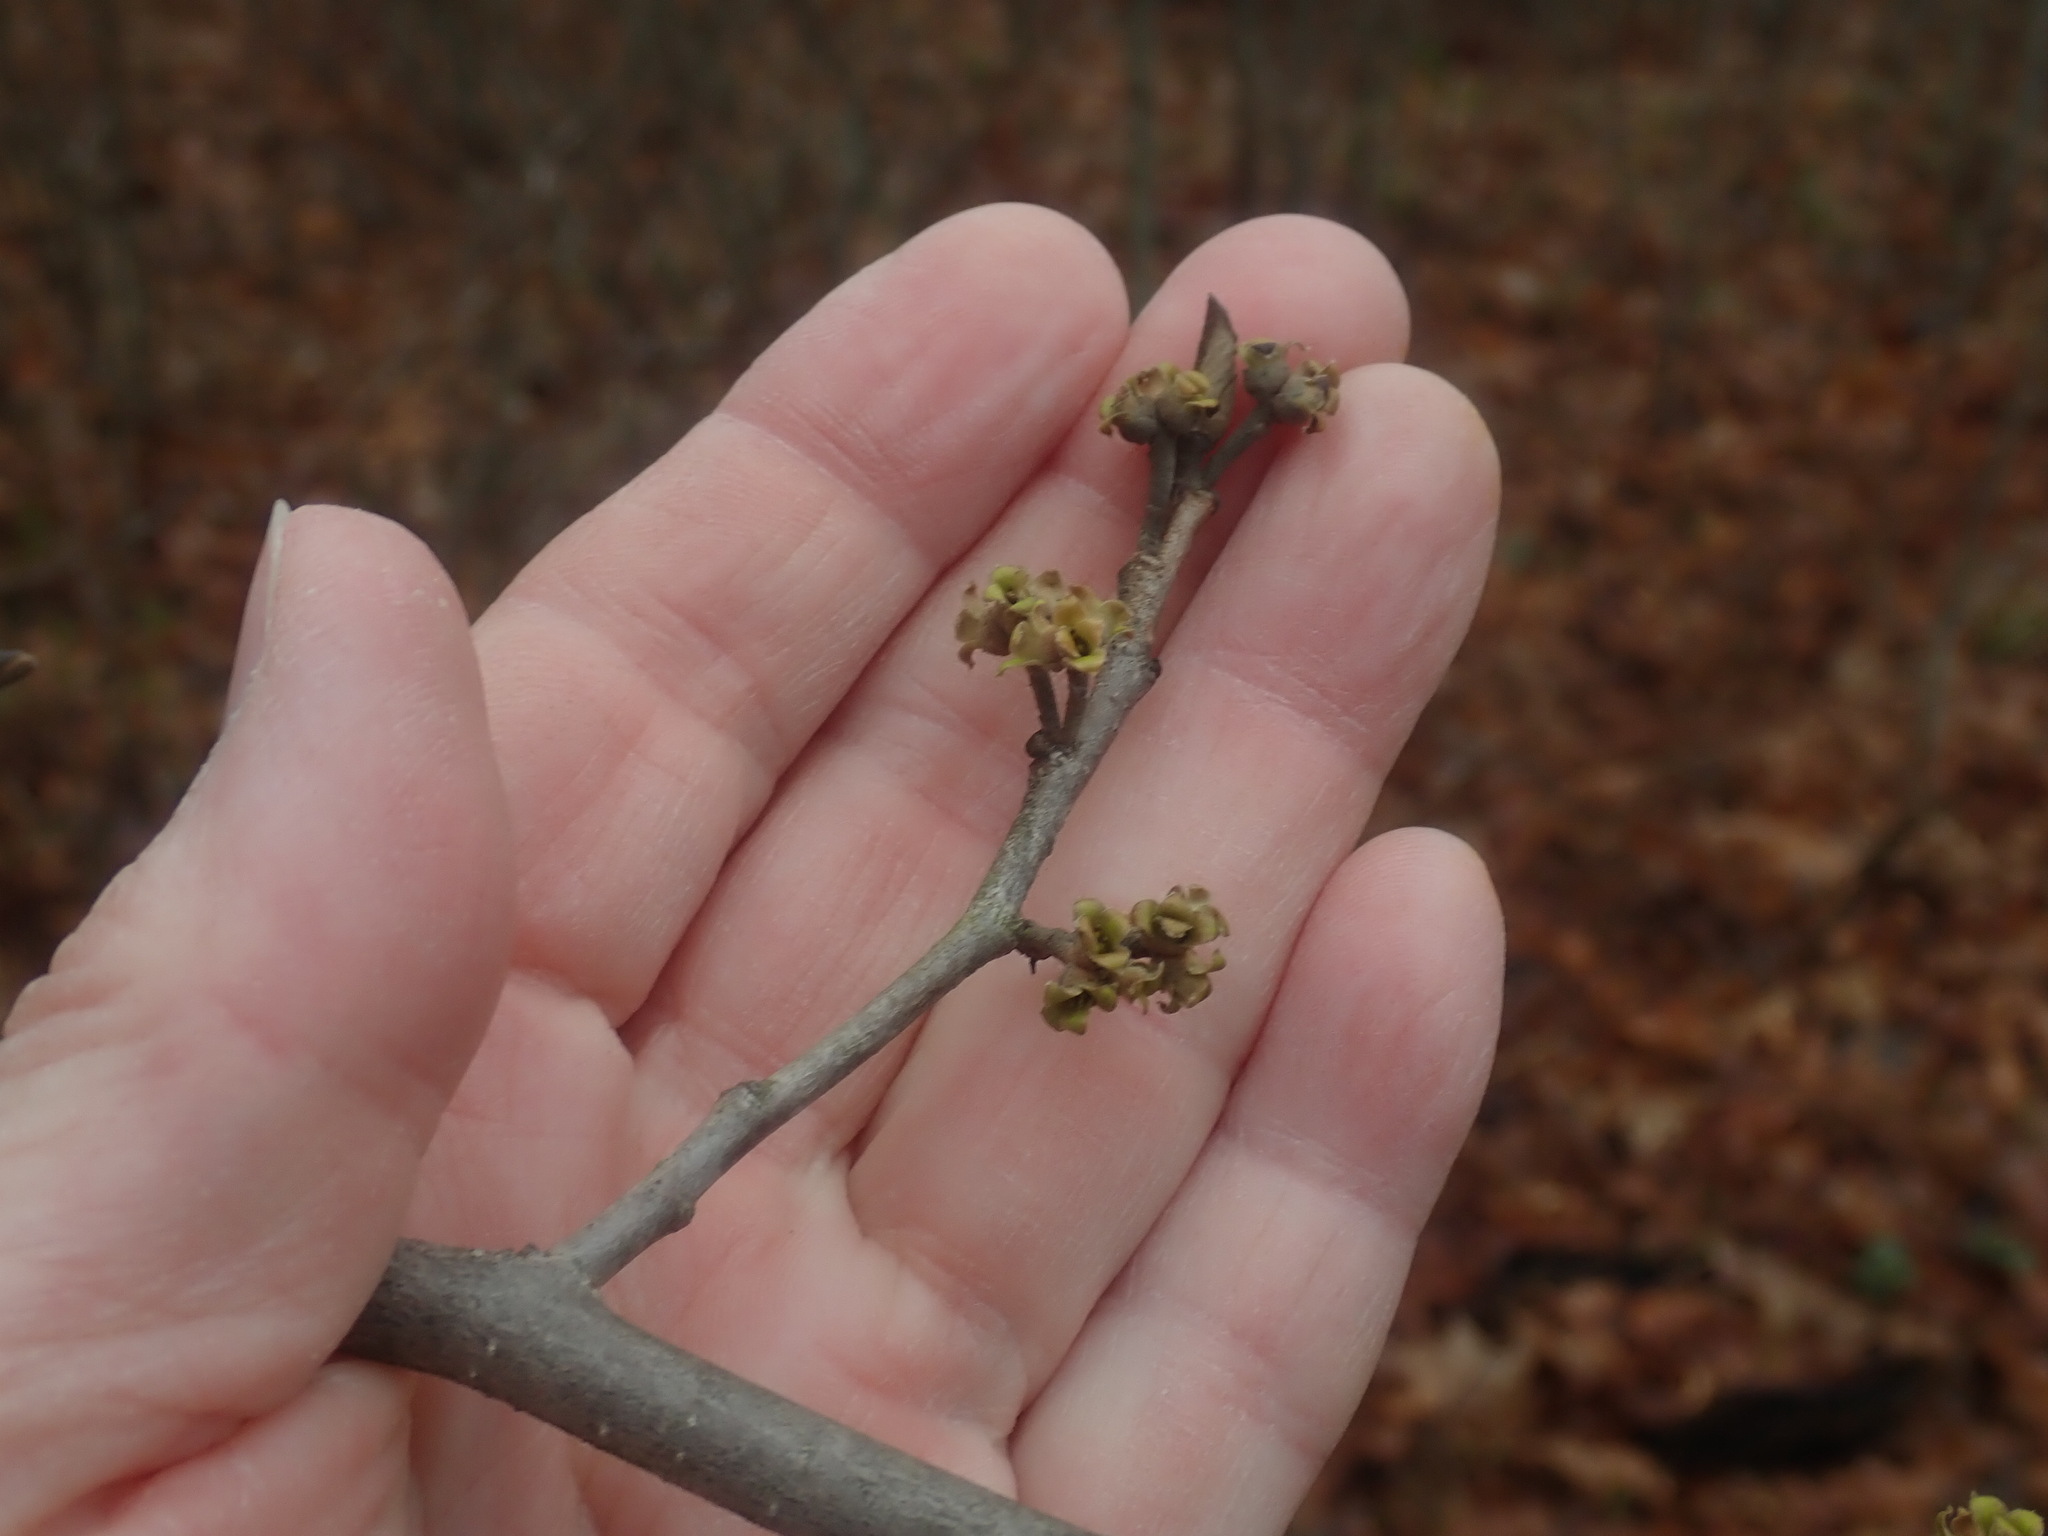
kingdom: Plantae
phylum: Tracheophyta
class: Magnoliopsida
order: Saxifragales
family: Hamamelidaceae
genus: Hamamelis
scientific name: Hamamelis virginiana
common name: Witch-hazel
